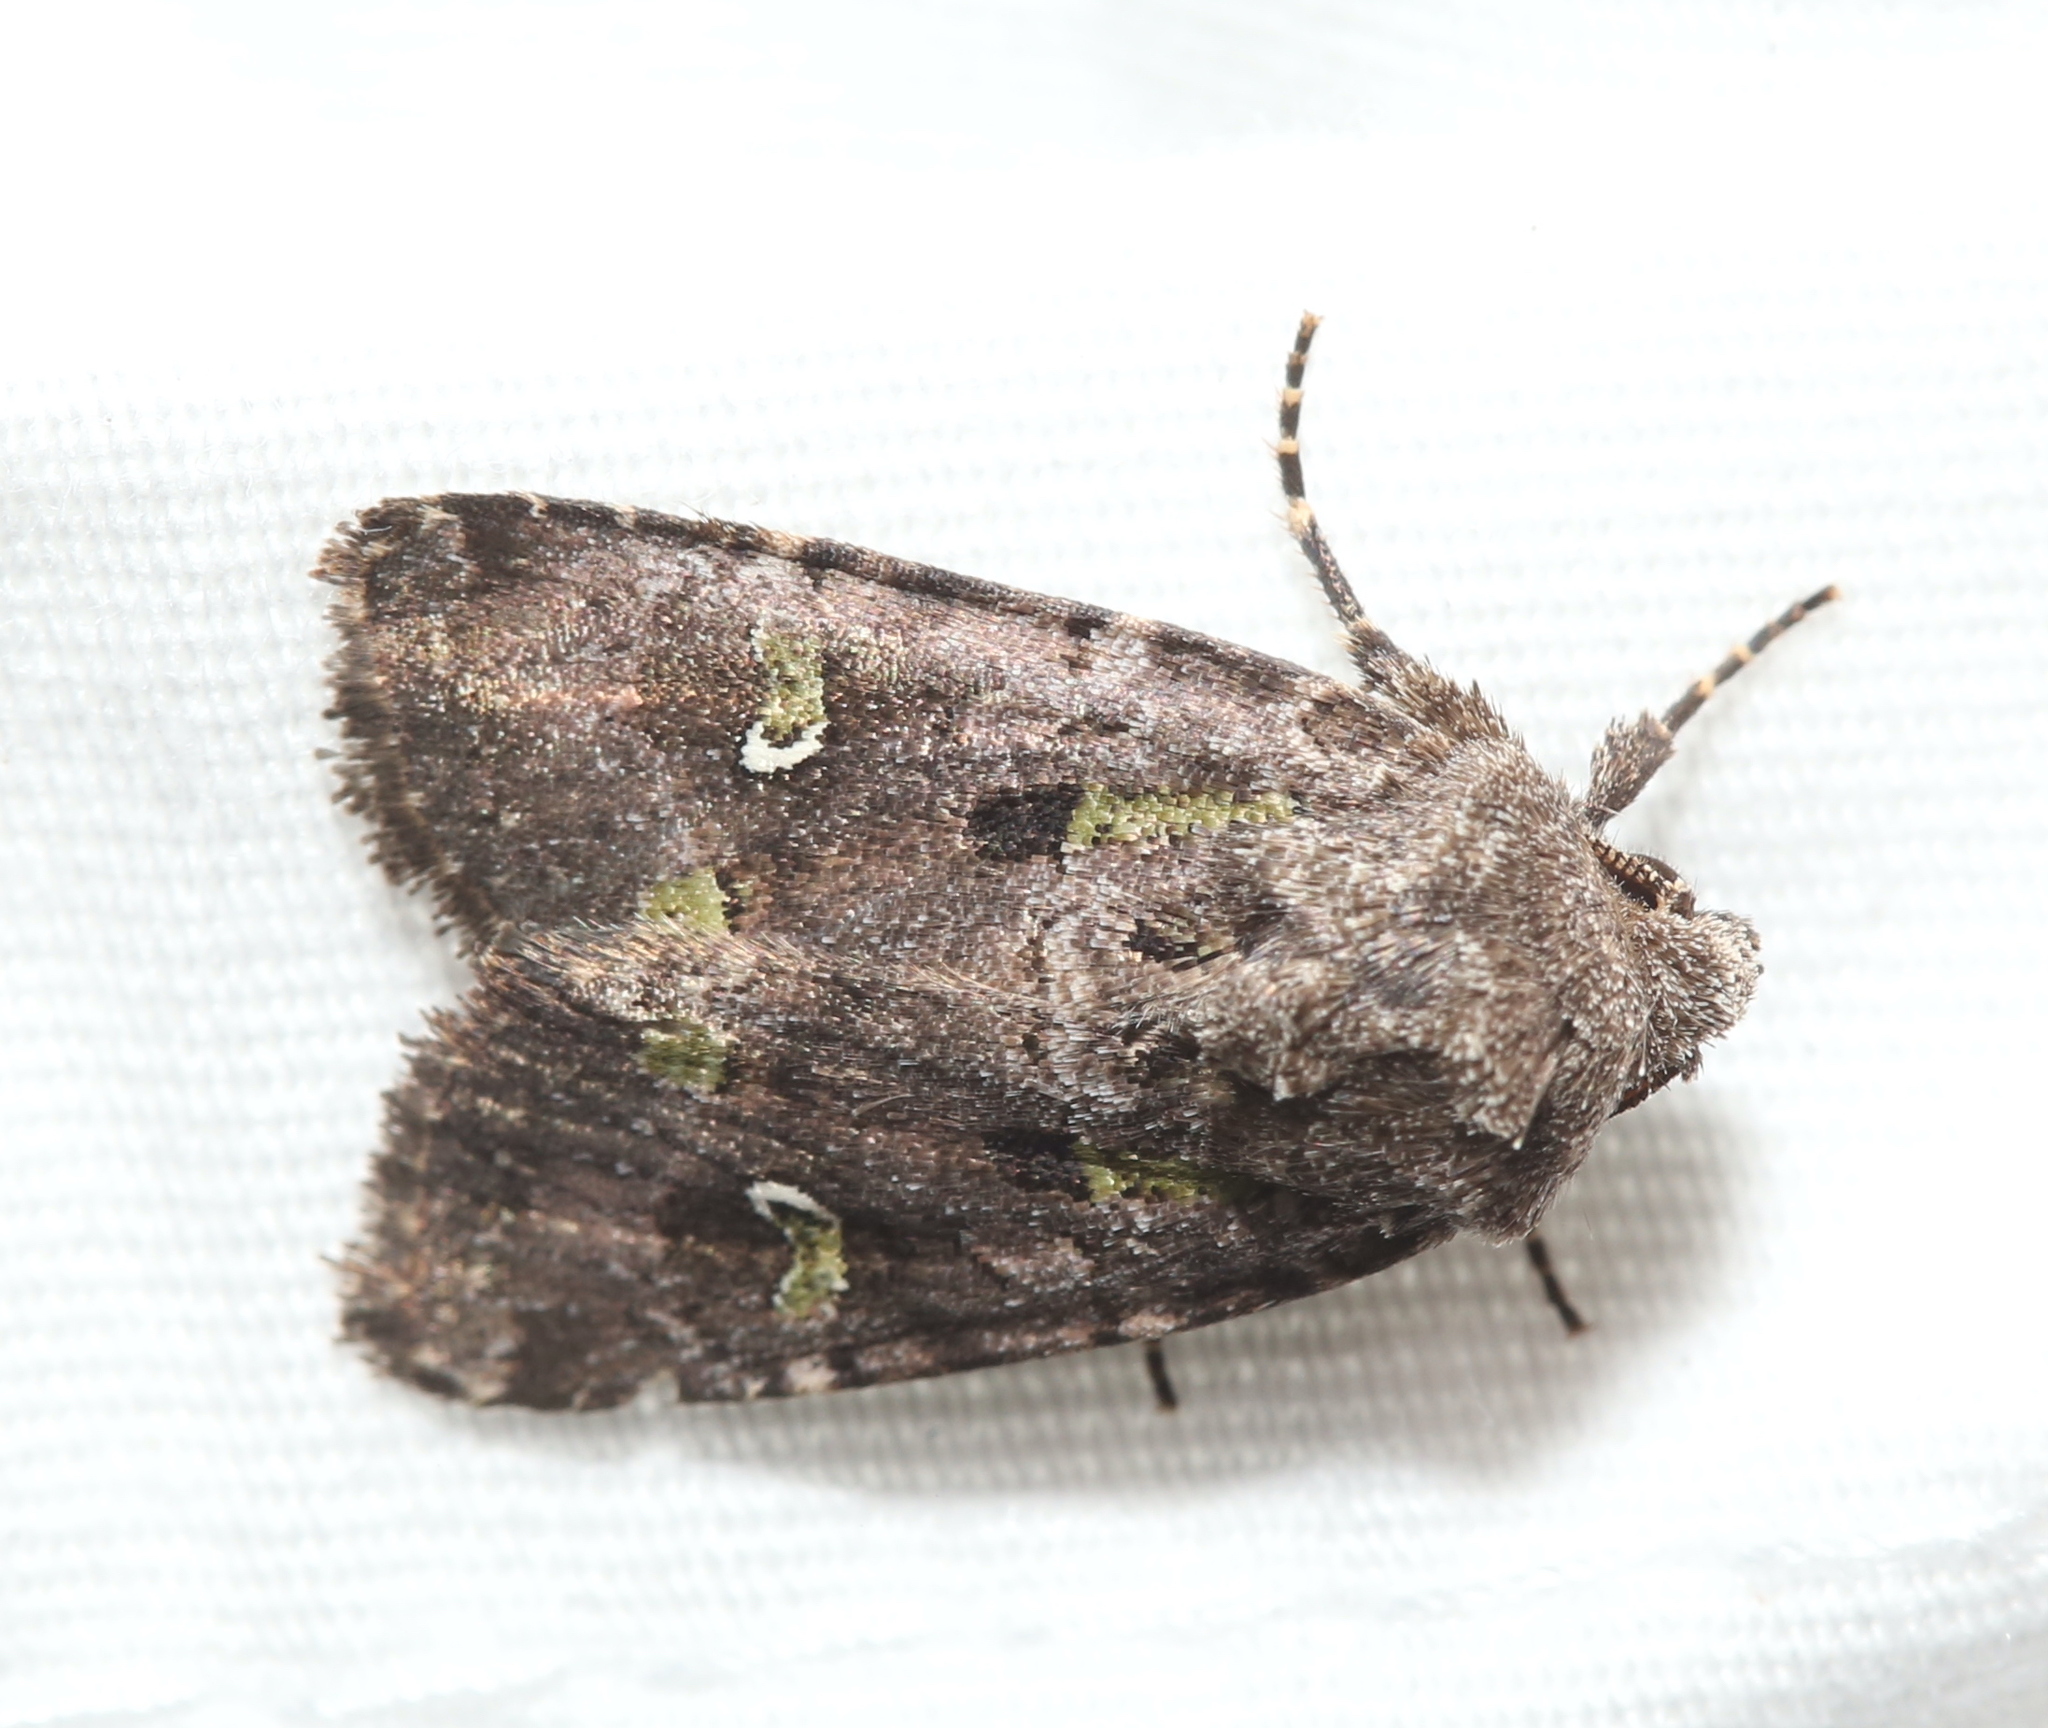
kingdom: Animalia
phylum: Arthropoda
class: Insecta
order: Lepidoptera
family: Noctuidae
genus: Lacinipolia
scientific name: Lacinipolia renigera
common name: Kidney-spotted minor
